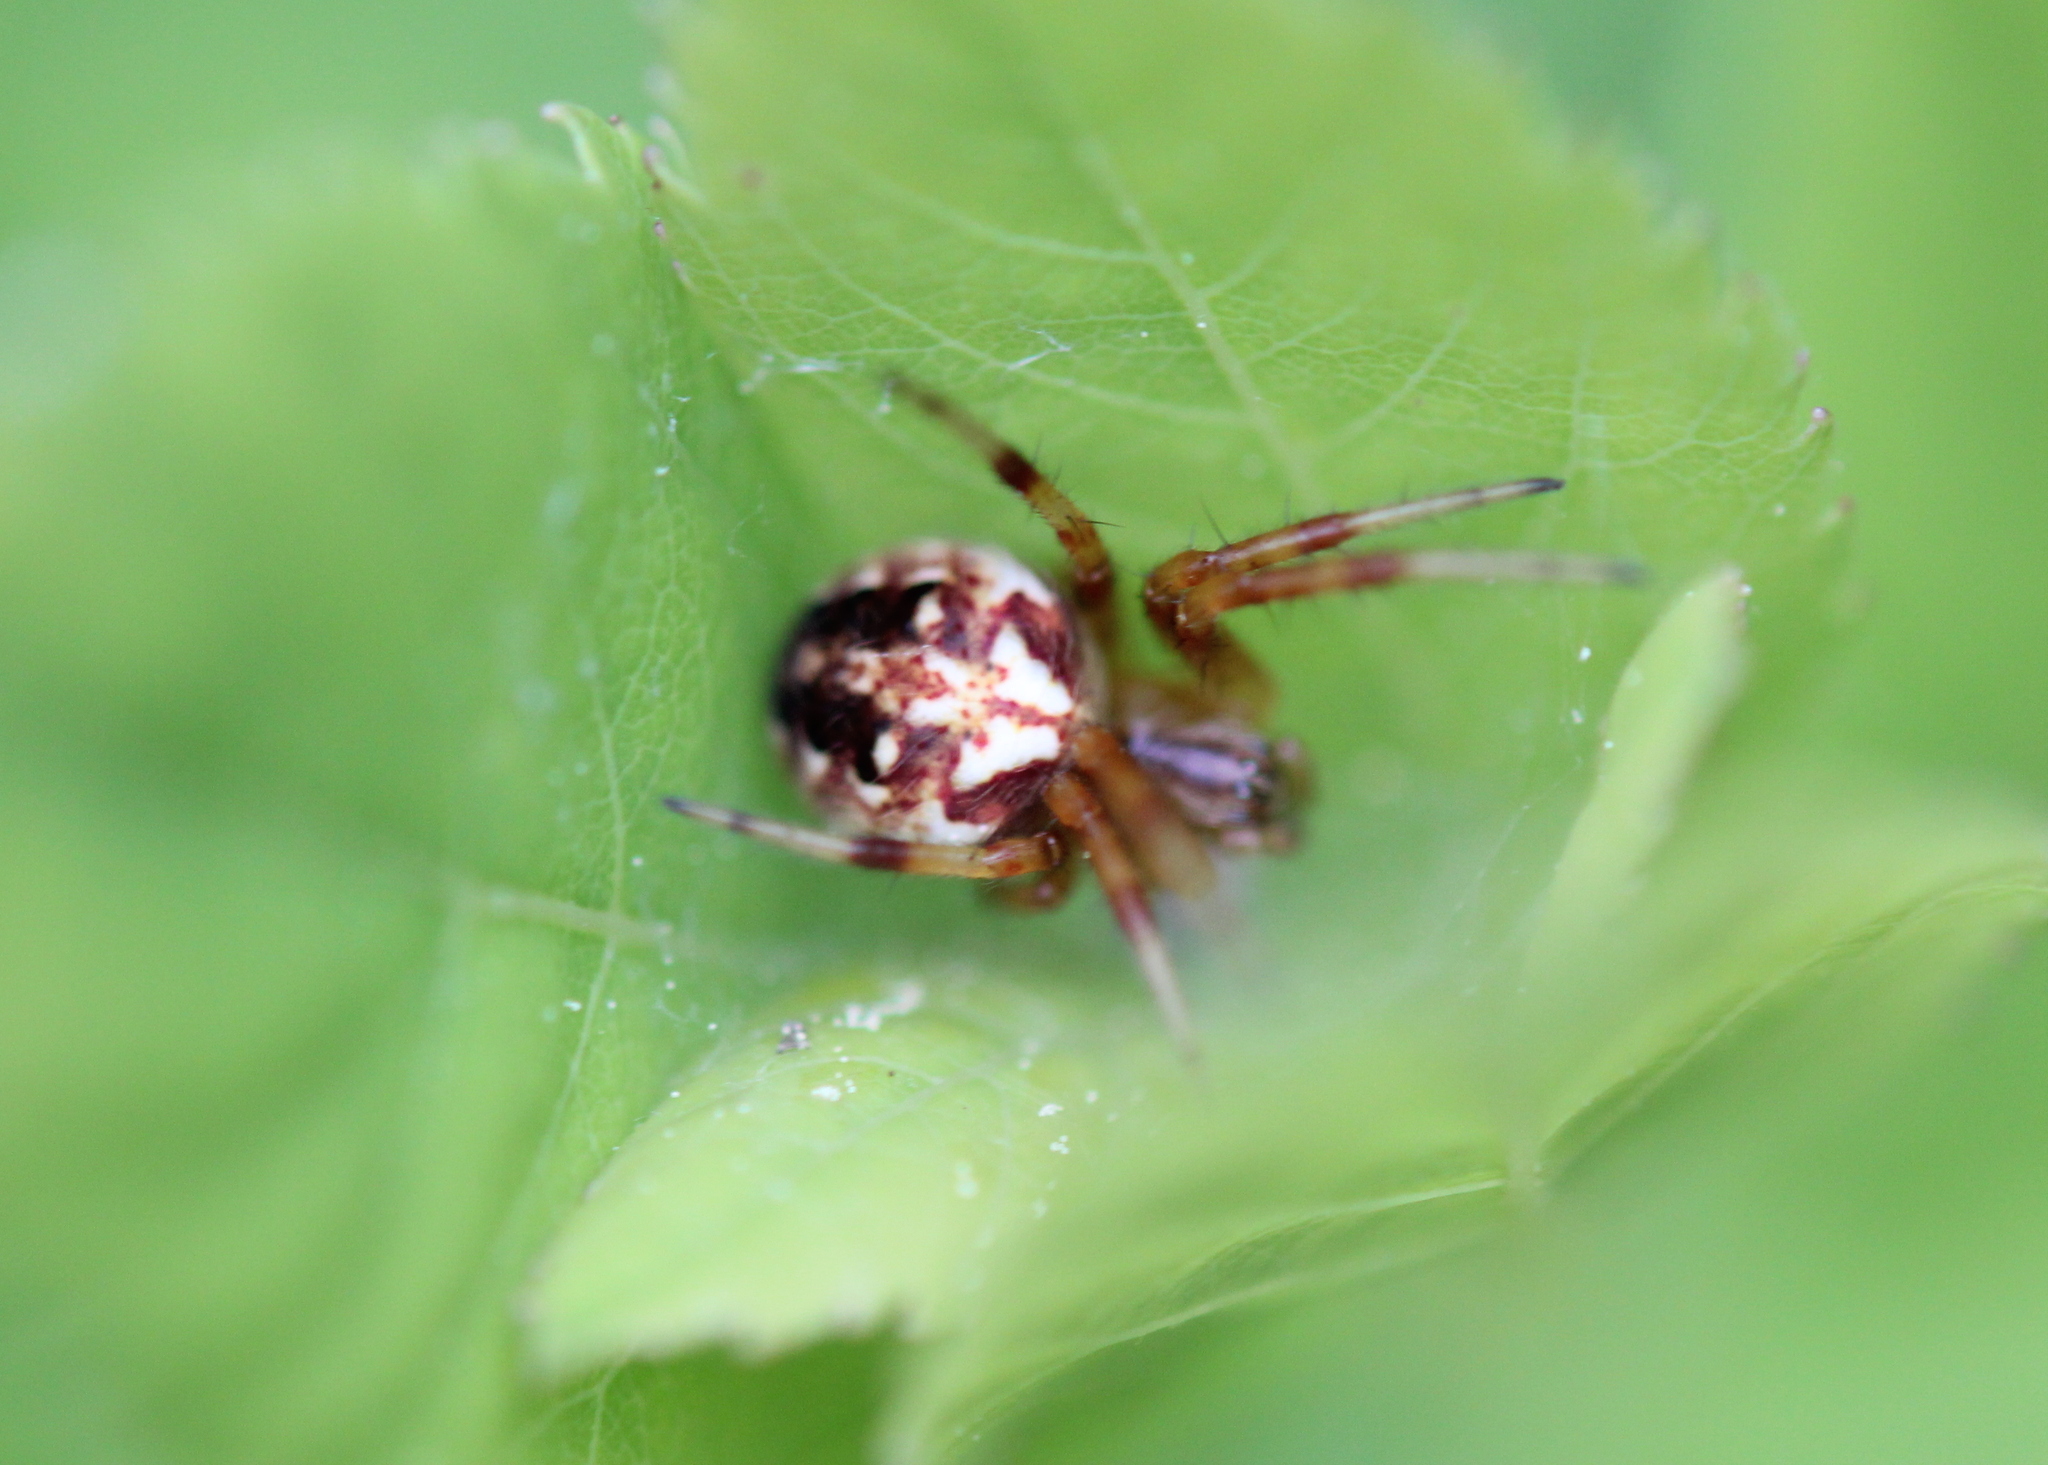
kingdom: Animalia
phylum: Arthropoda
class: Arachnida
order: Araneae
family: Araneidae
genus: Neoscona
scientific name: Neoscona arabesca
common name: Orb weavers
